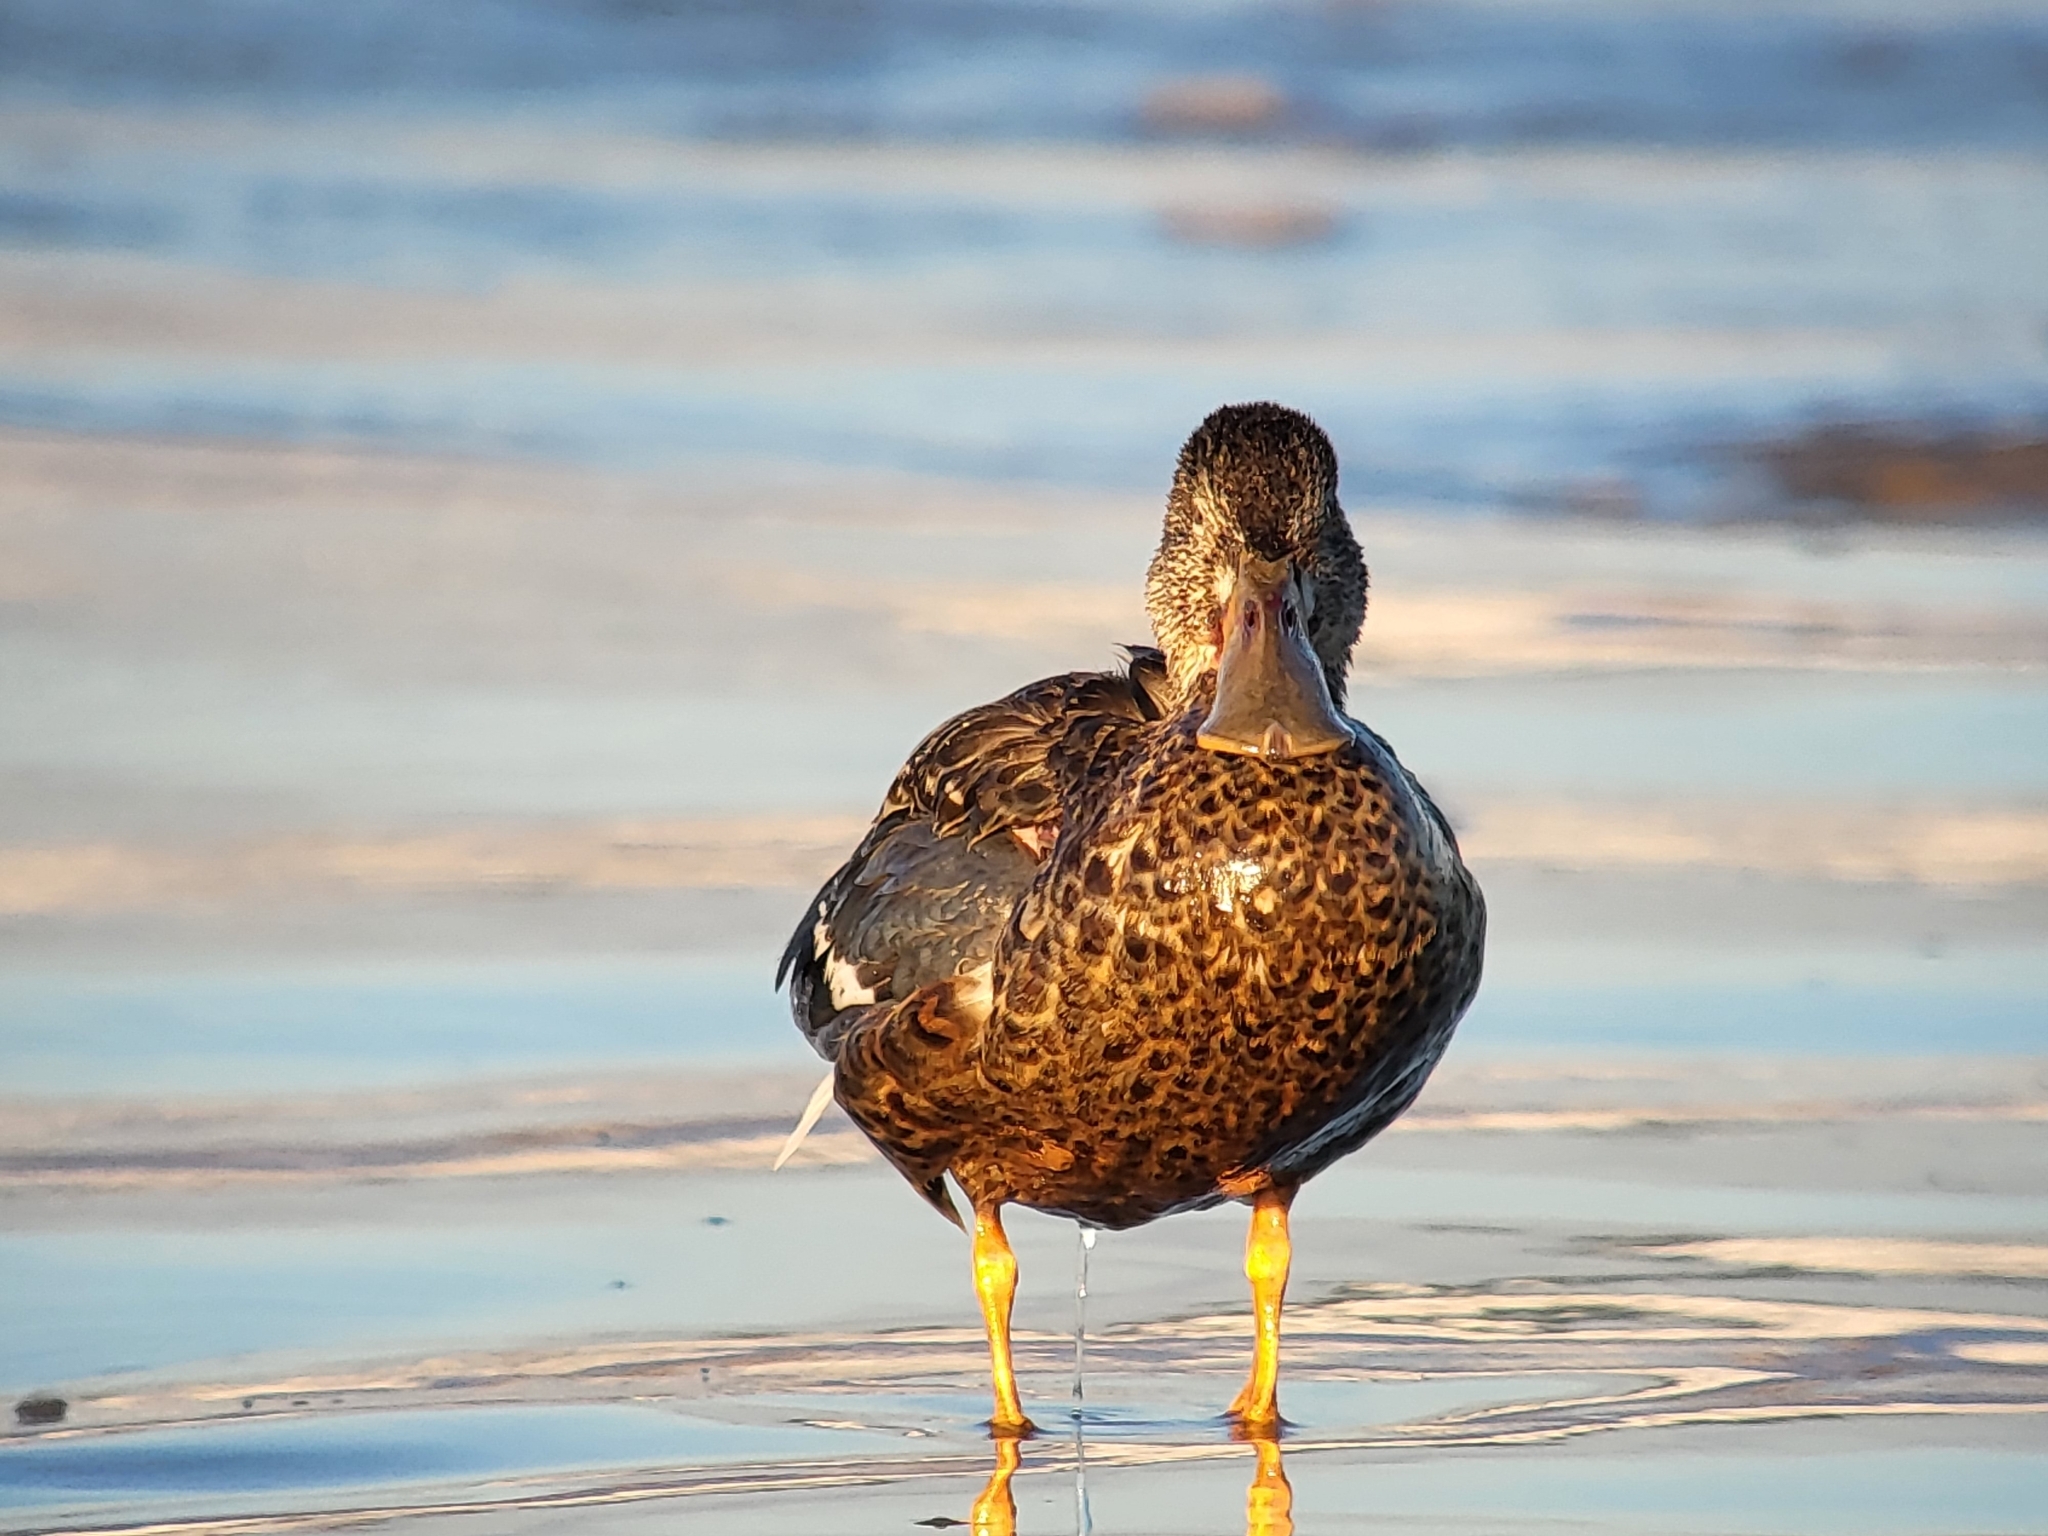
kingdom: Animalia
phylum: Chordata
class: Aves
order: Anseriformes
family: Anatidae
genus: Spatula
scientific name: Spatula clypeata
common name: Northern shoveler
